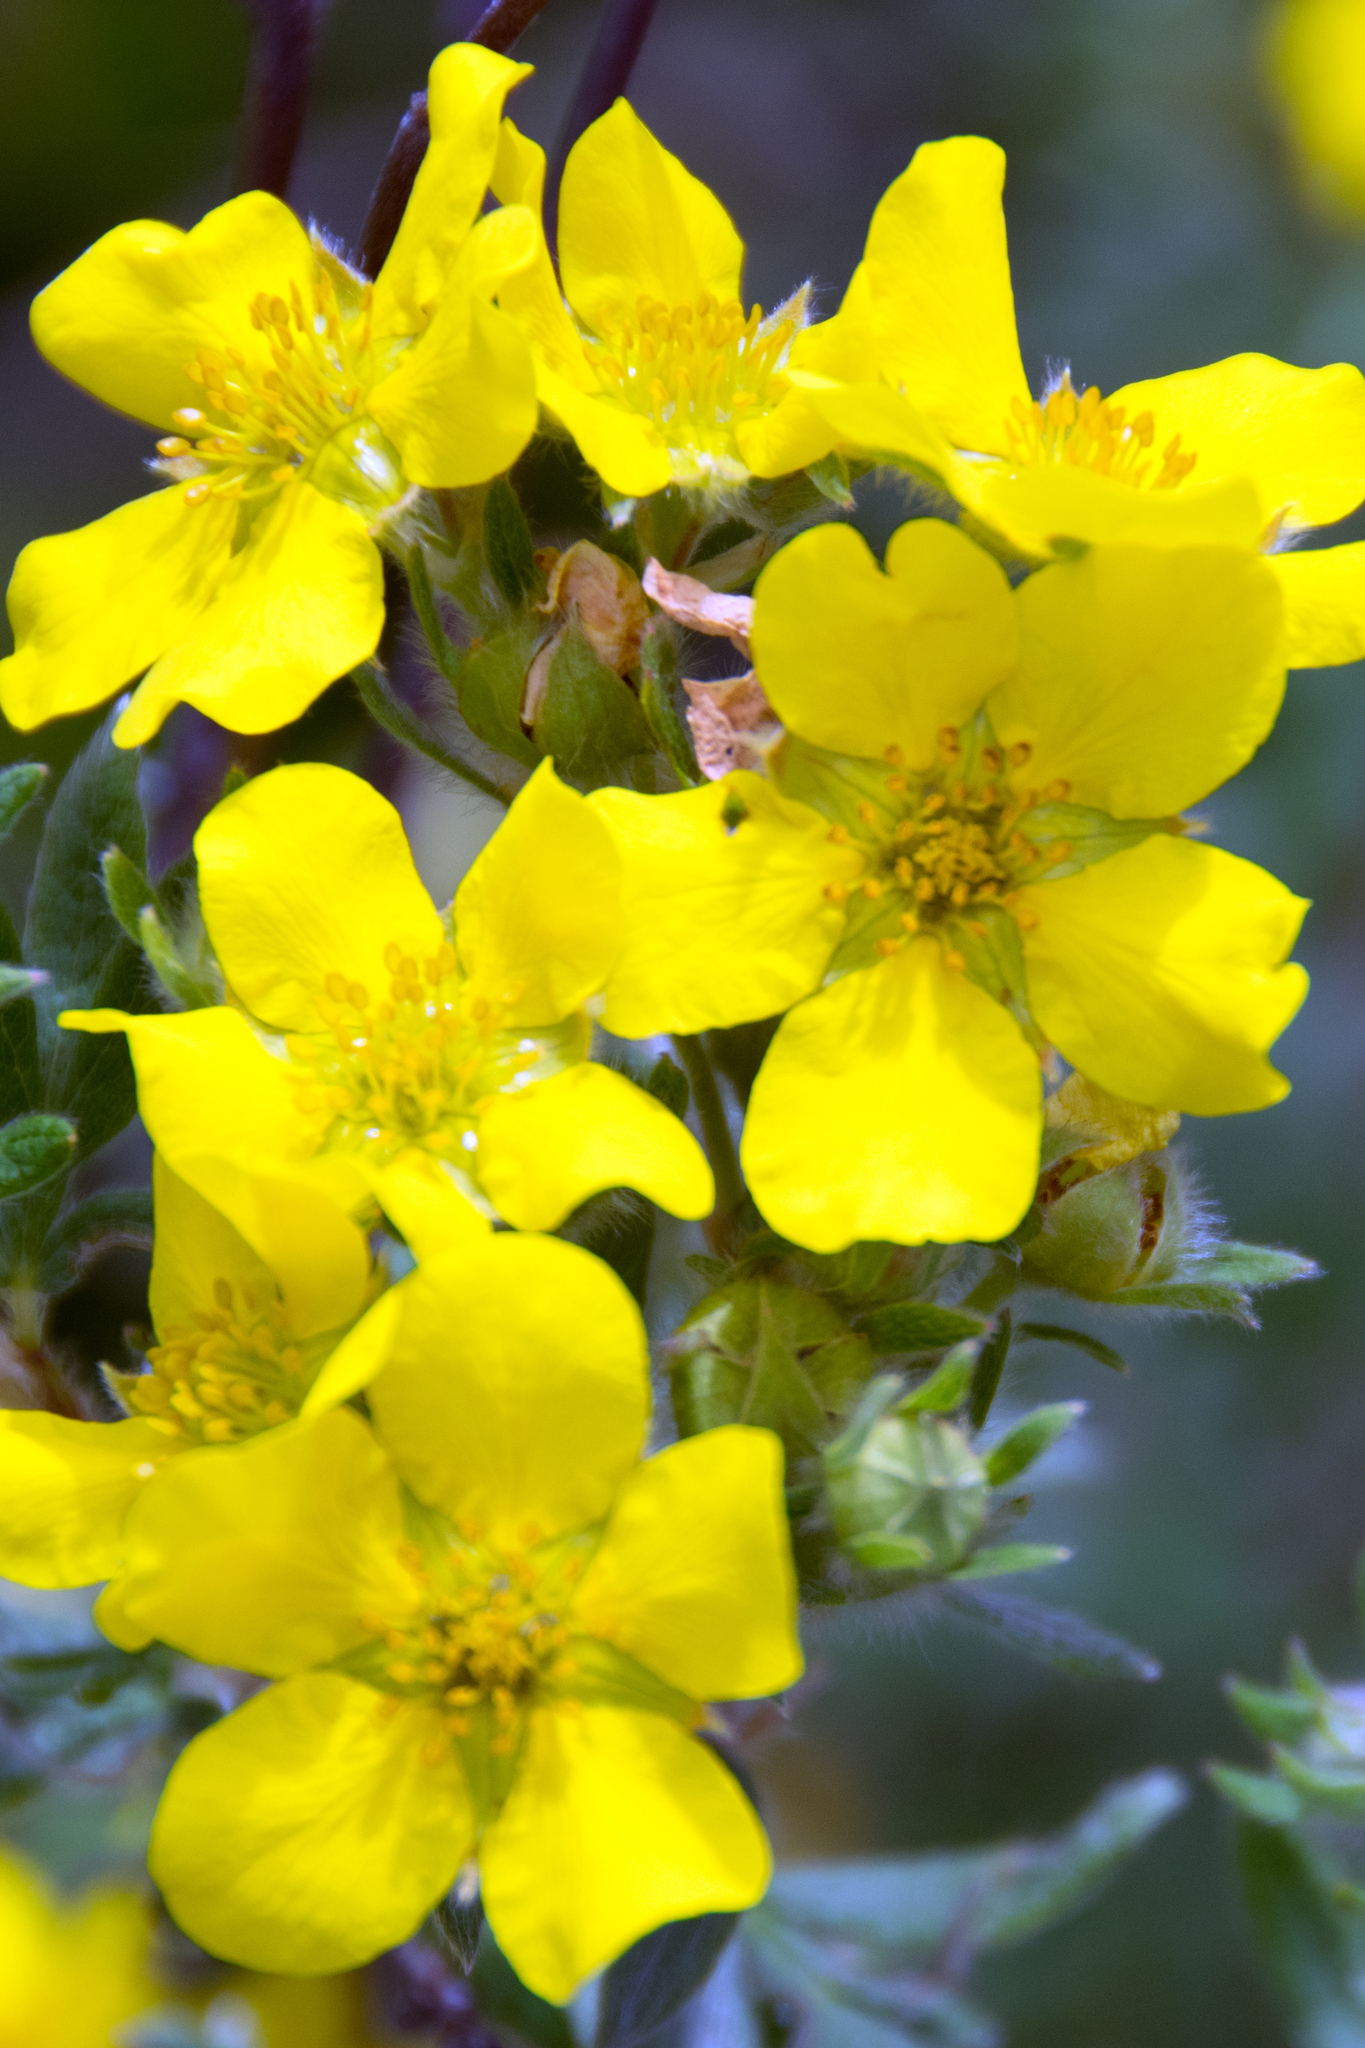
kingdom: Plantae
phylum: Tracheophyta
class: Magnoliopsida
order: Rosales
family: Rosaceae
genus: Dasiphora
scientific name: Dasiphora fruticosa
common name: Shrubby cinquefoil
